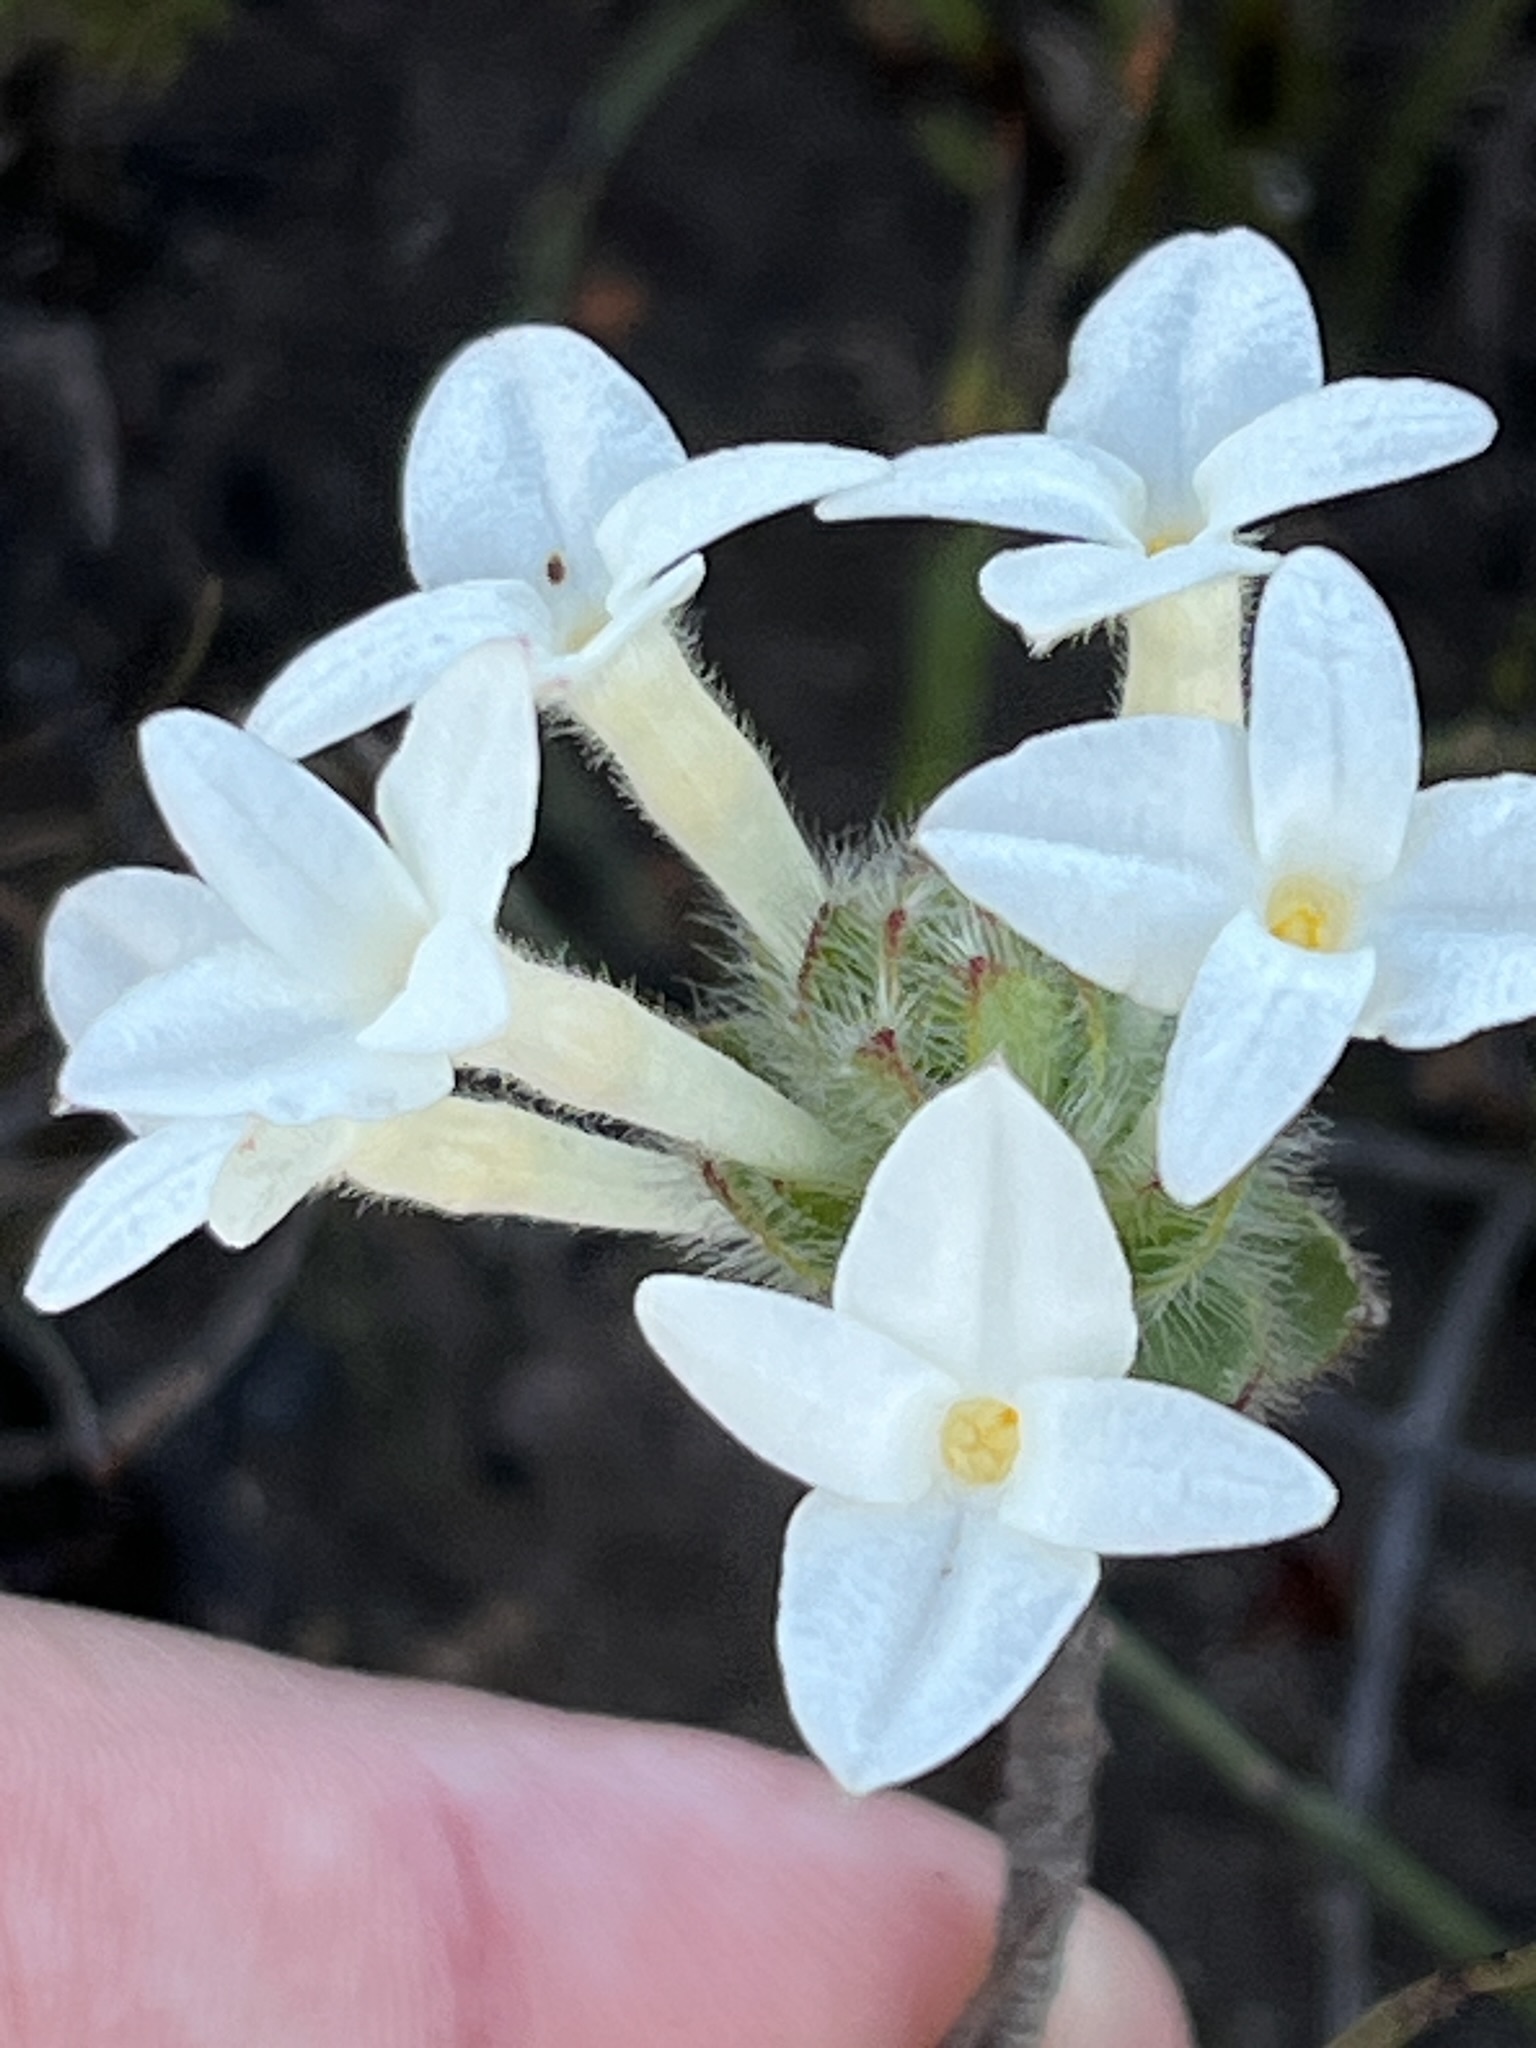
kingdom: Plantae
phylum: Tracheophyta
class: Magnoliopsida
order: Malvales
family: Thymelaeaceae
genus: Gnidia
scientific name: Gnidia ornata
